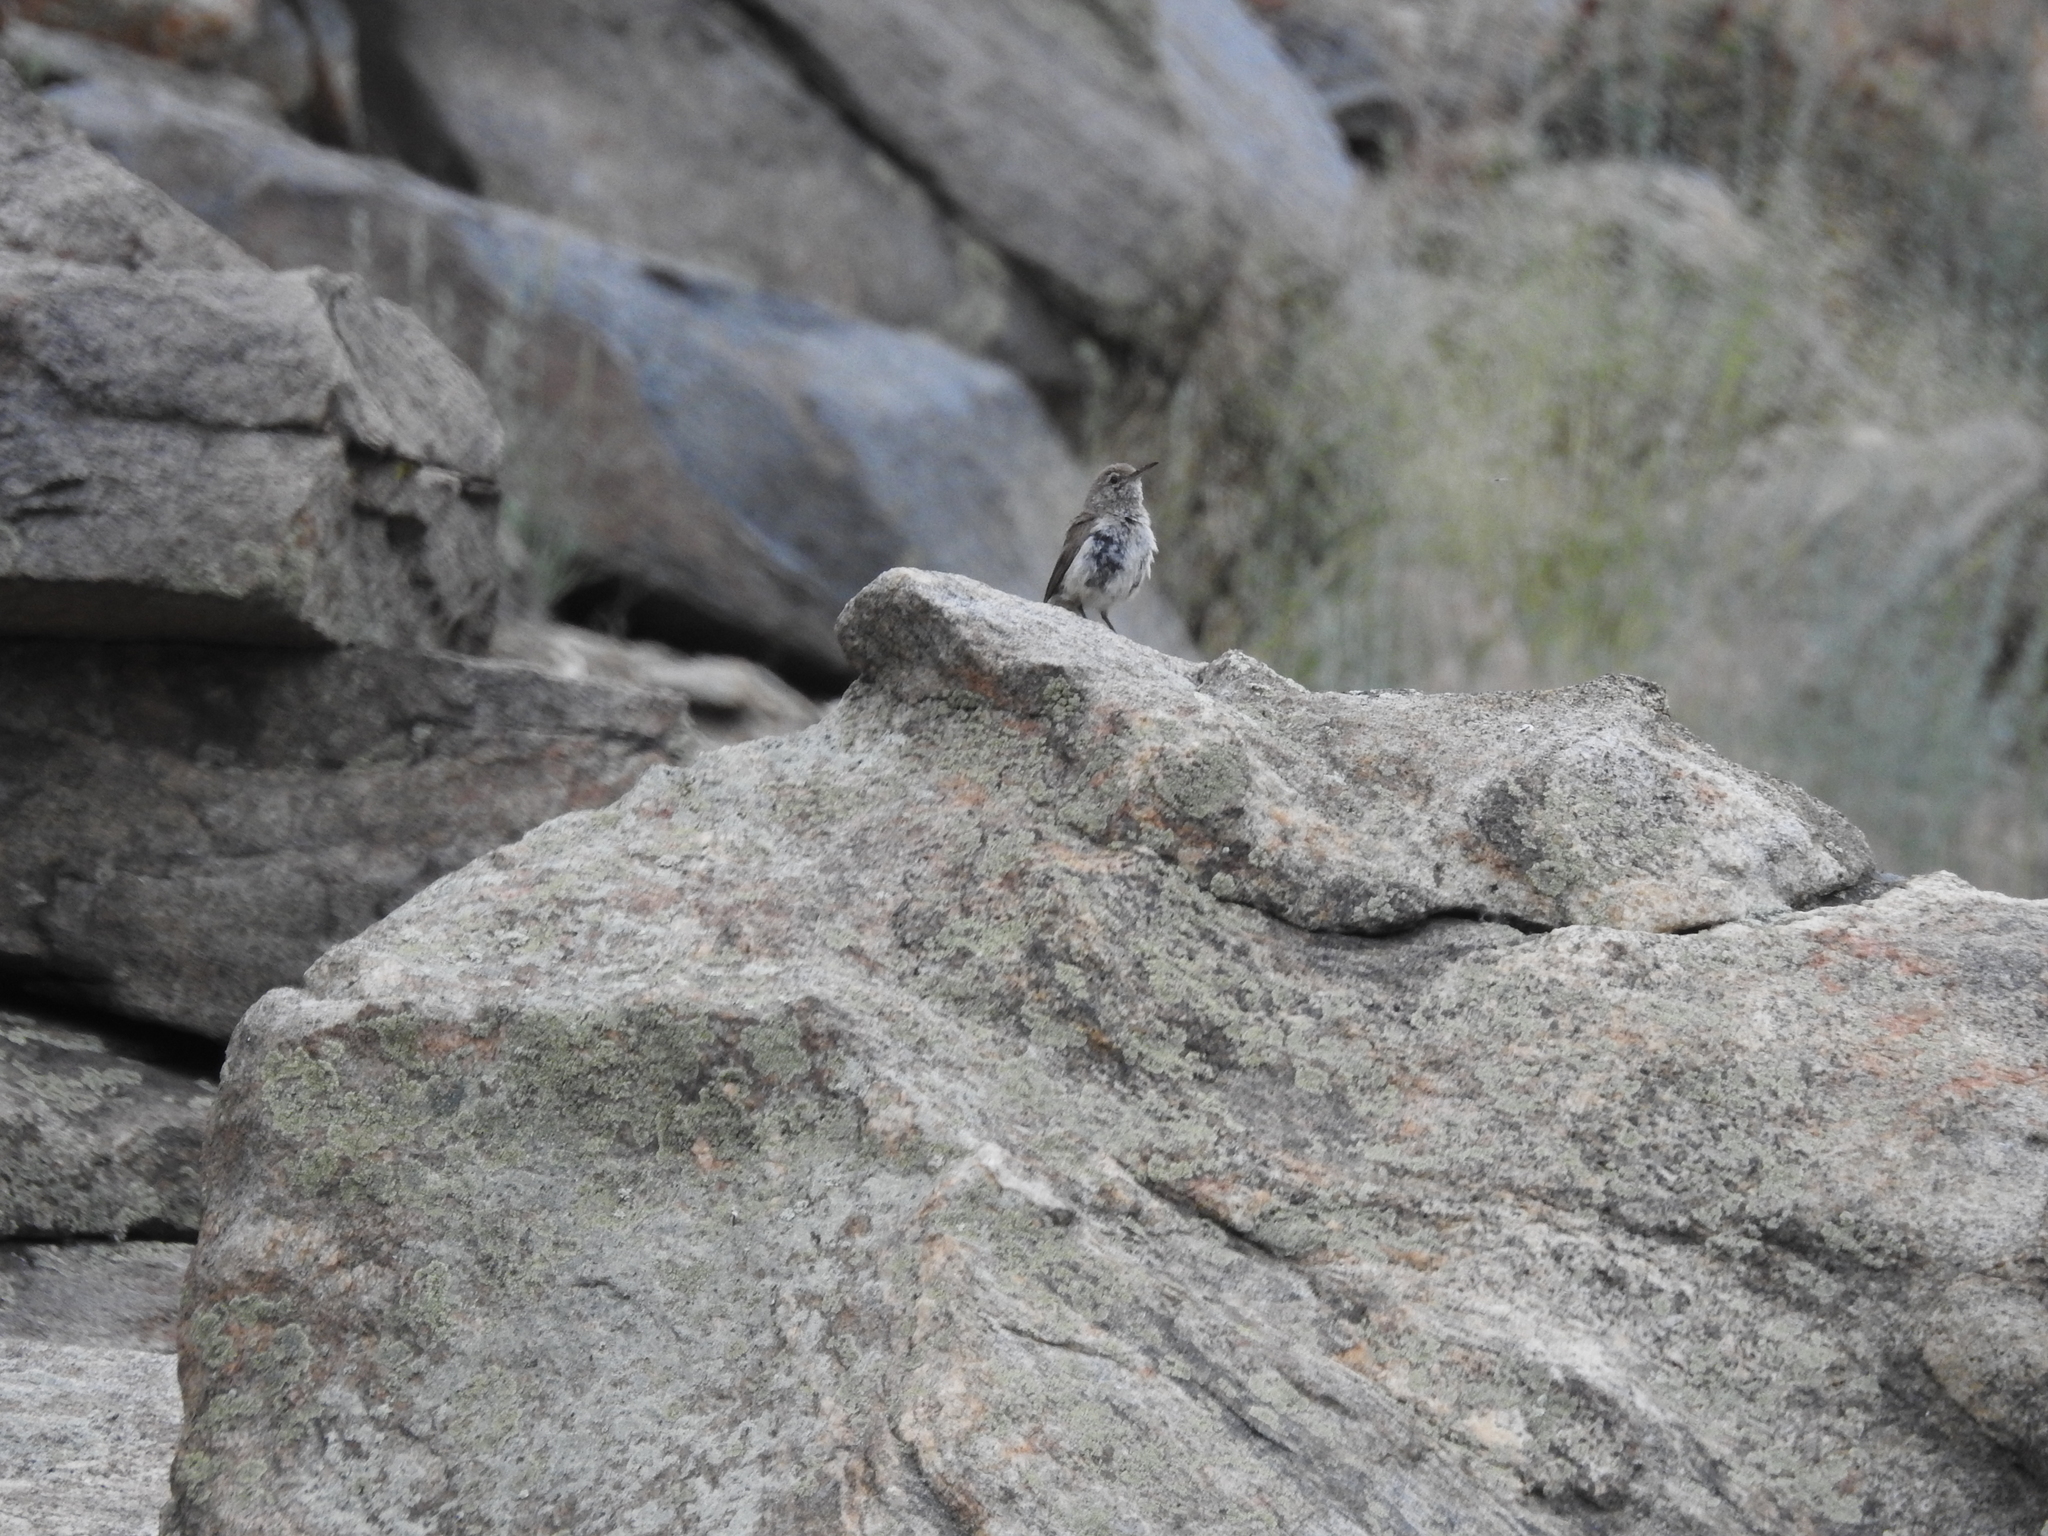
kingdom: Animalia
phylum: Chordata
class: Aves
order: Passeriformes
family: Troglodytidae
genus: Salpinctes
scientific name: Salpinctes obsoletus
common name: Rock wren
